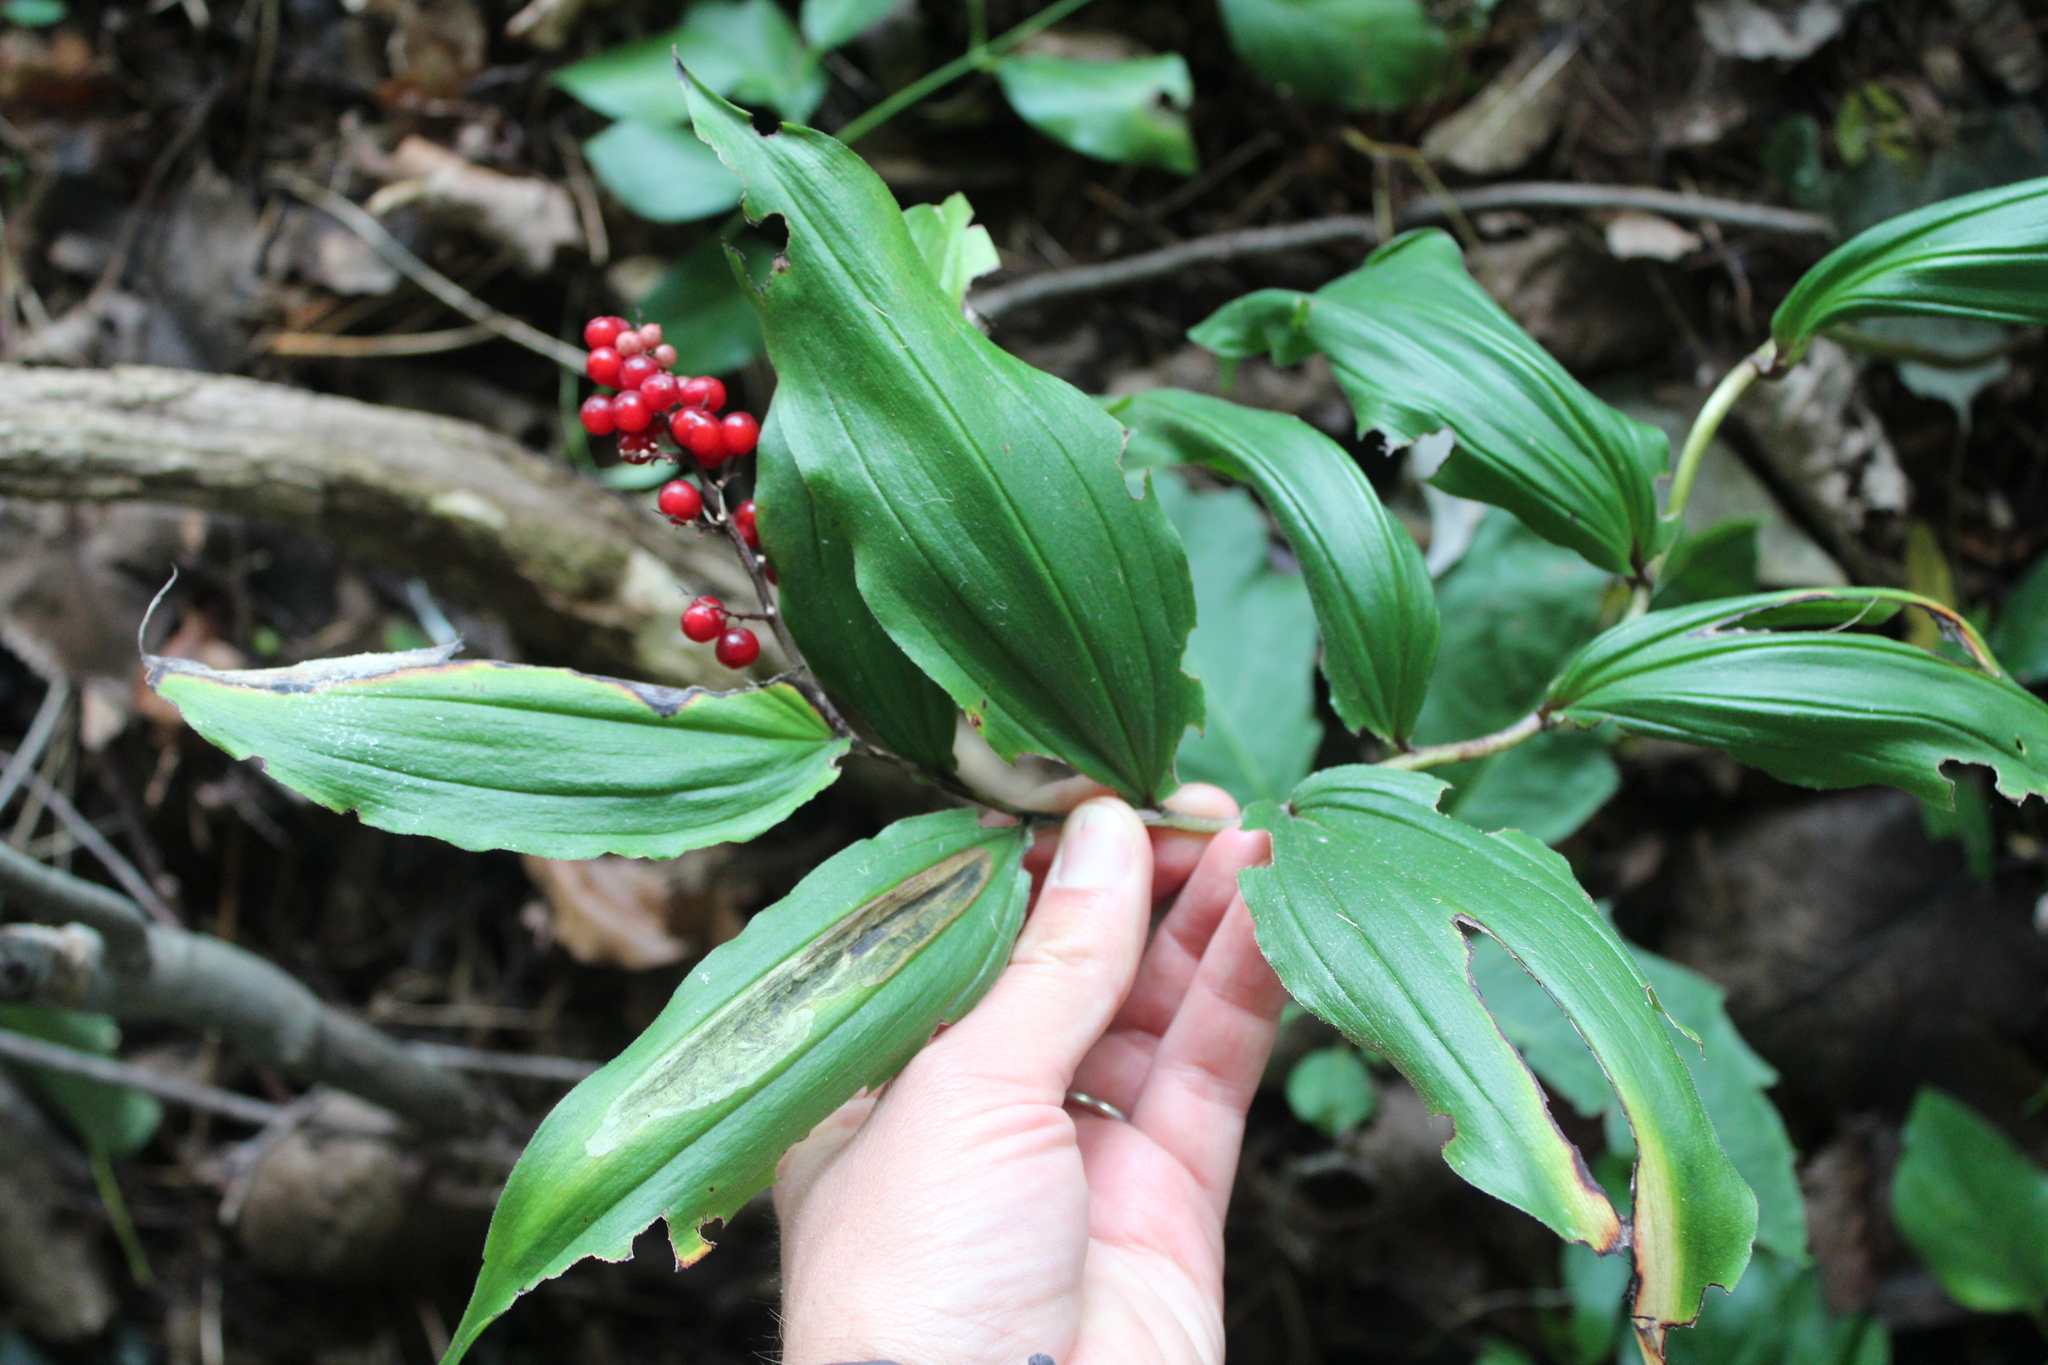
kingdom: Plantae
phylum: Tracheophyta
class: Liliopsida
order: Asparagales
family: Asparagaceae
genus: Maianthemum
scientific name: Maianthemum racemosum
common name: False spikenard
